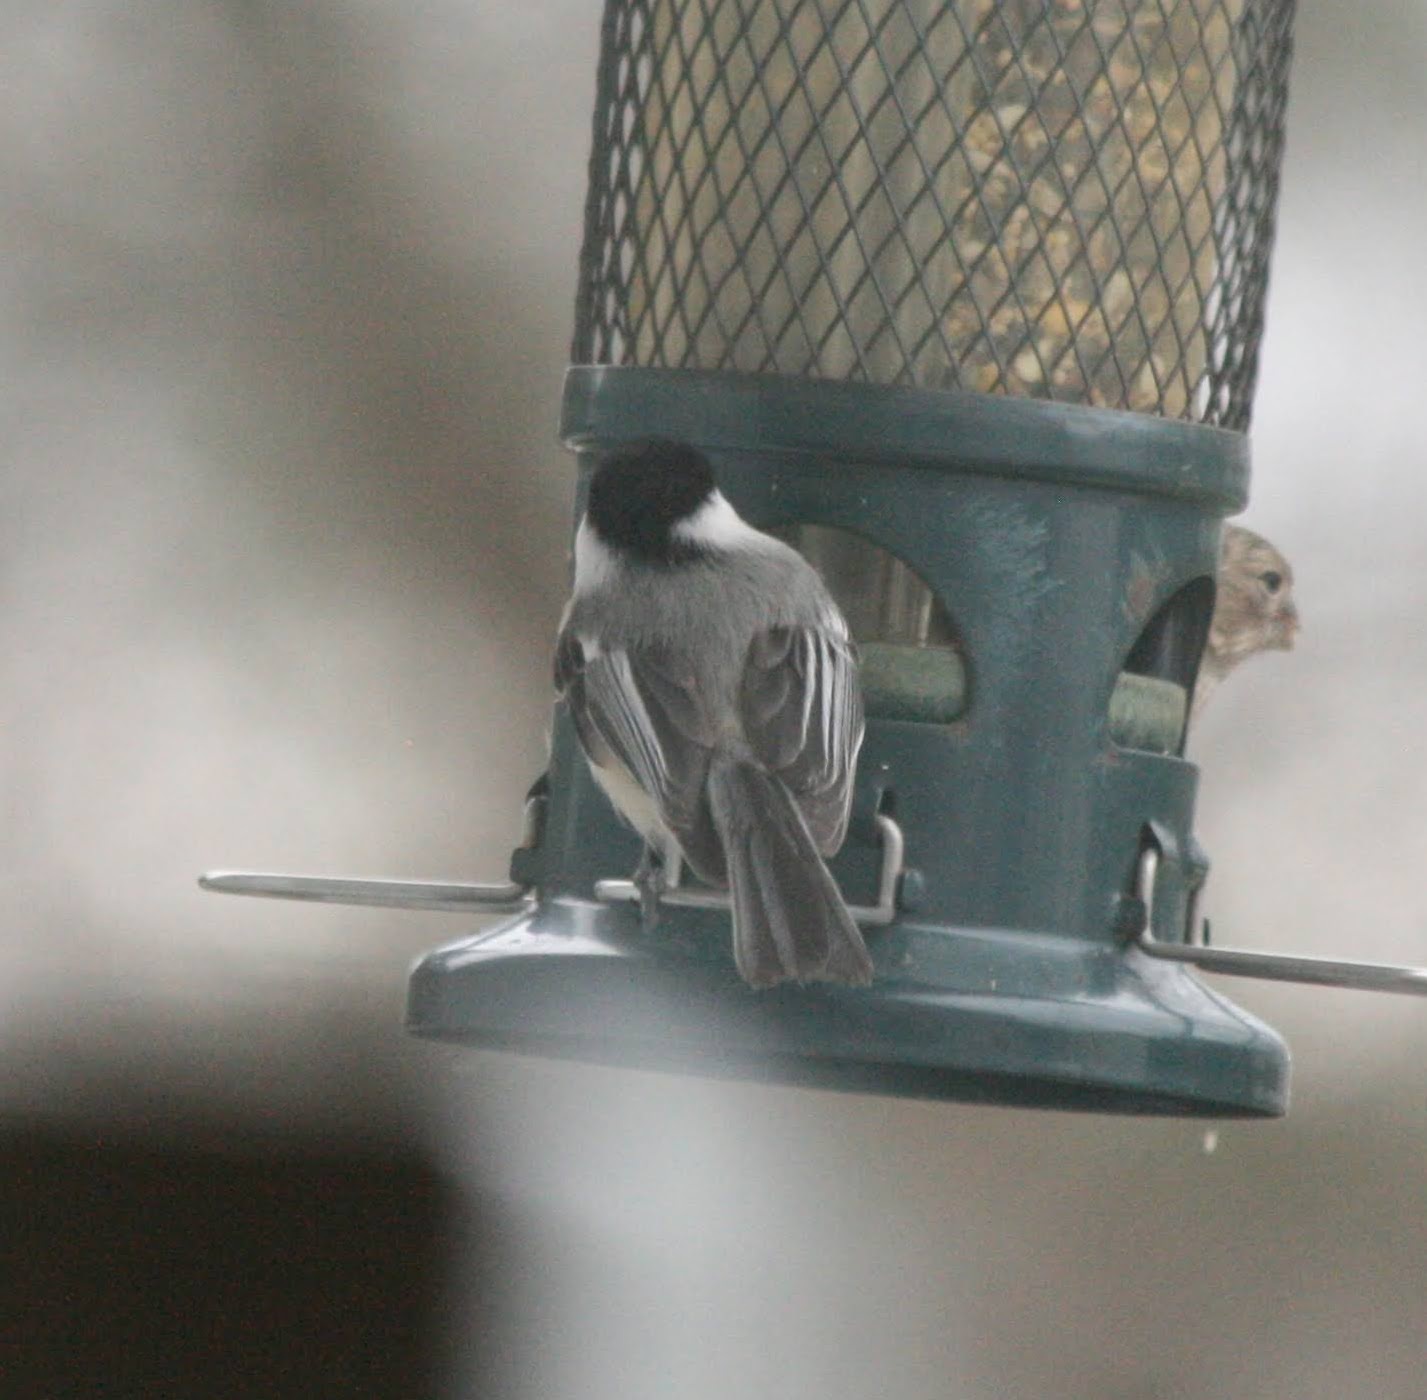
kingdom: Animalia
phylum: Chordata
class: Aves
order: Passeriformes
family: Paridae
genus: Poecile
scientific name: Poecile atricapillus
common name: Black-capped chickadee
